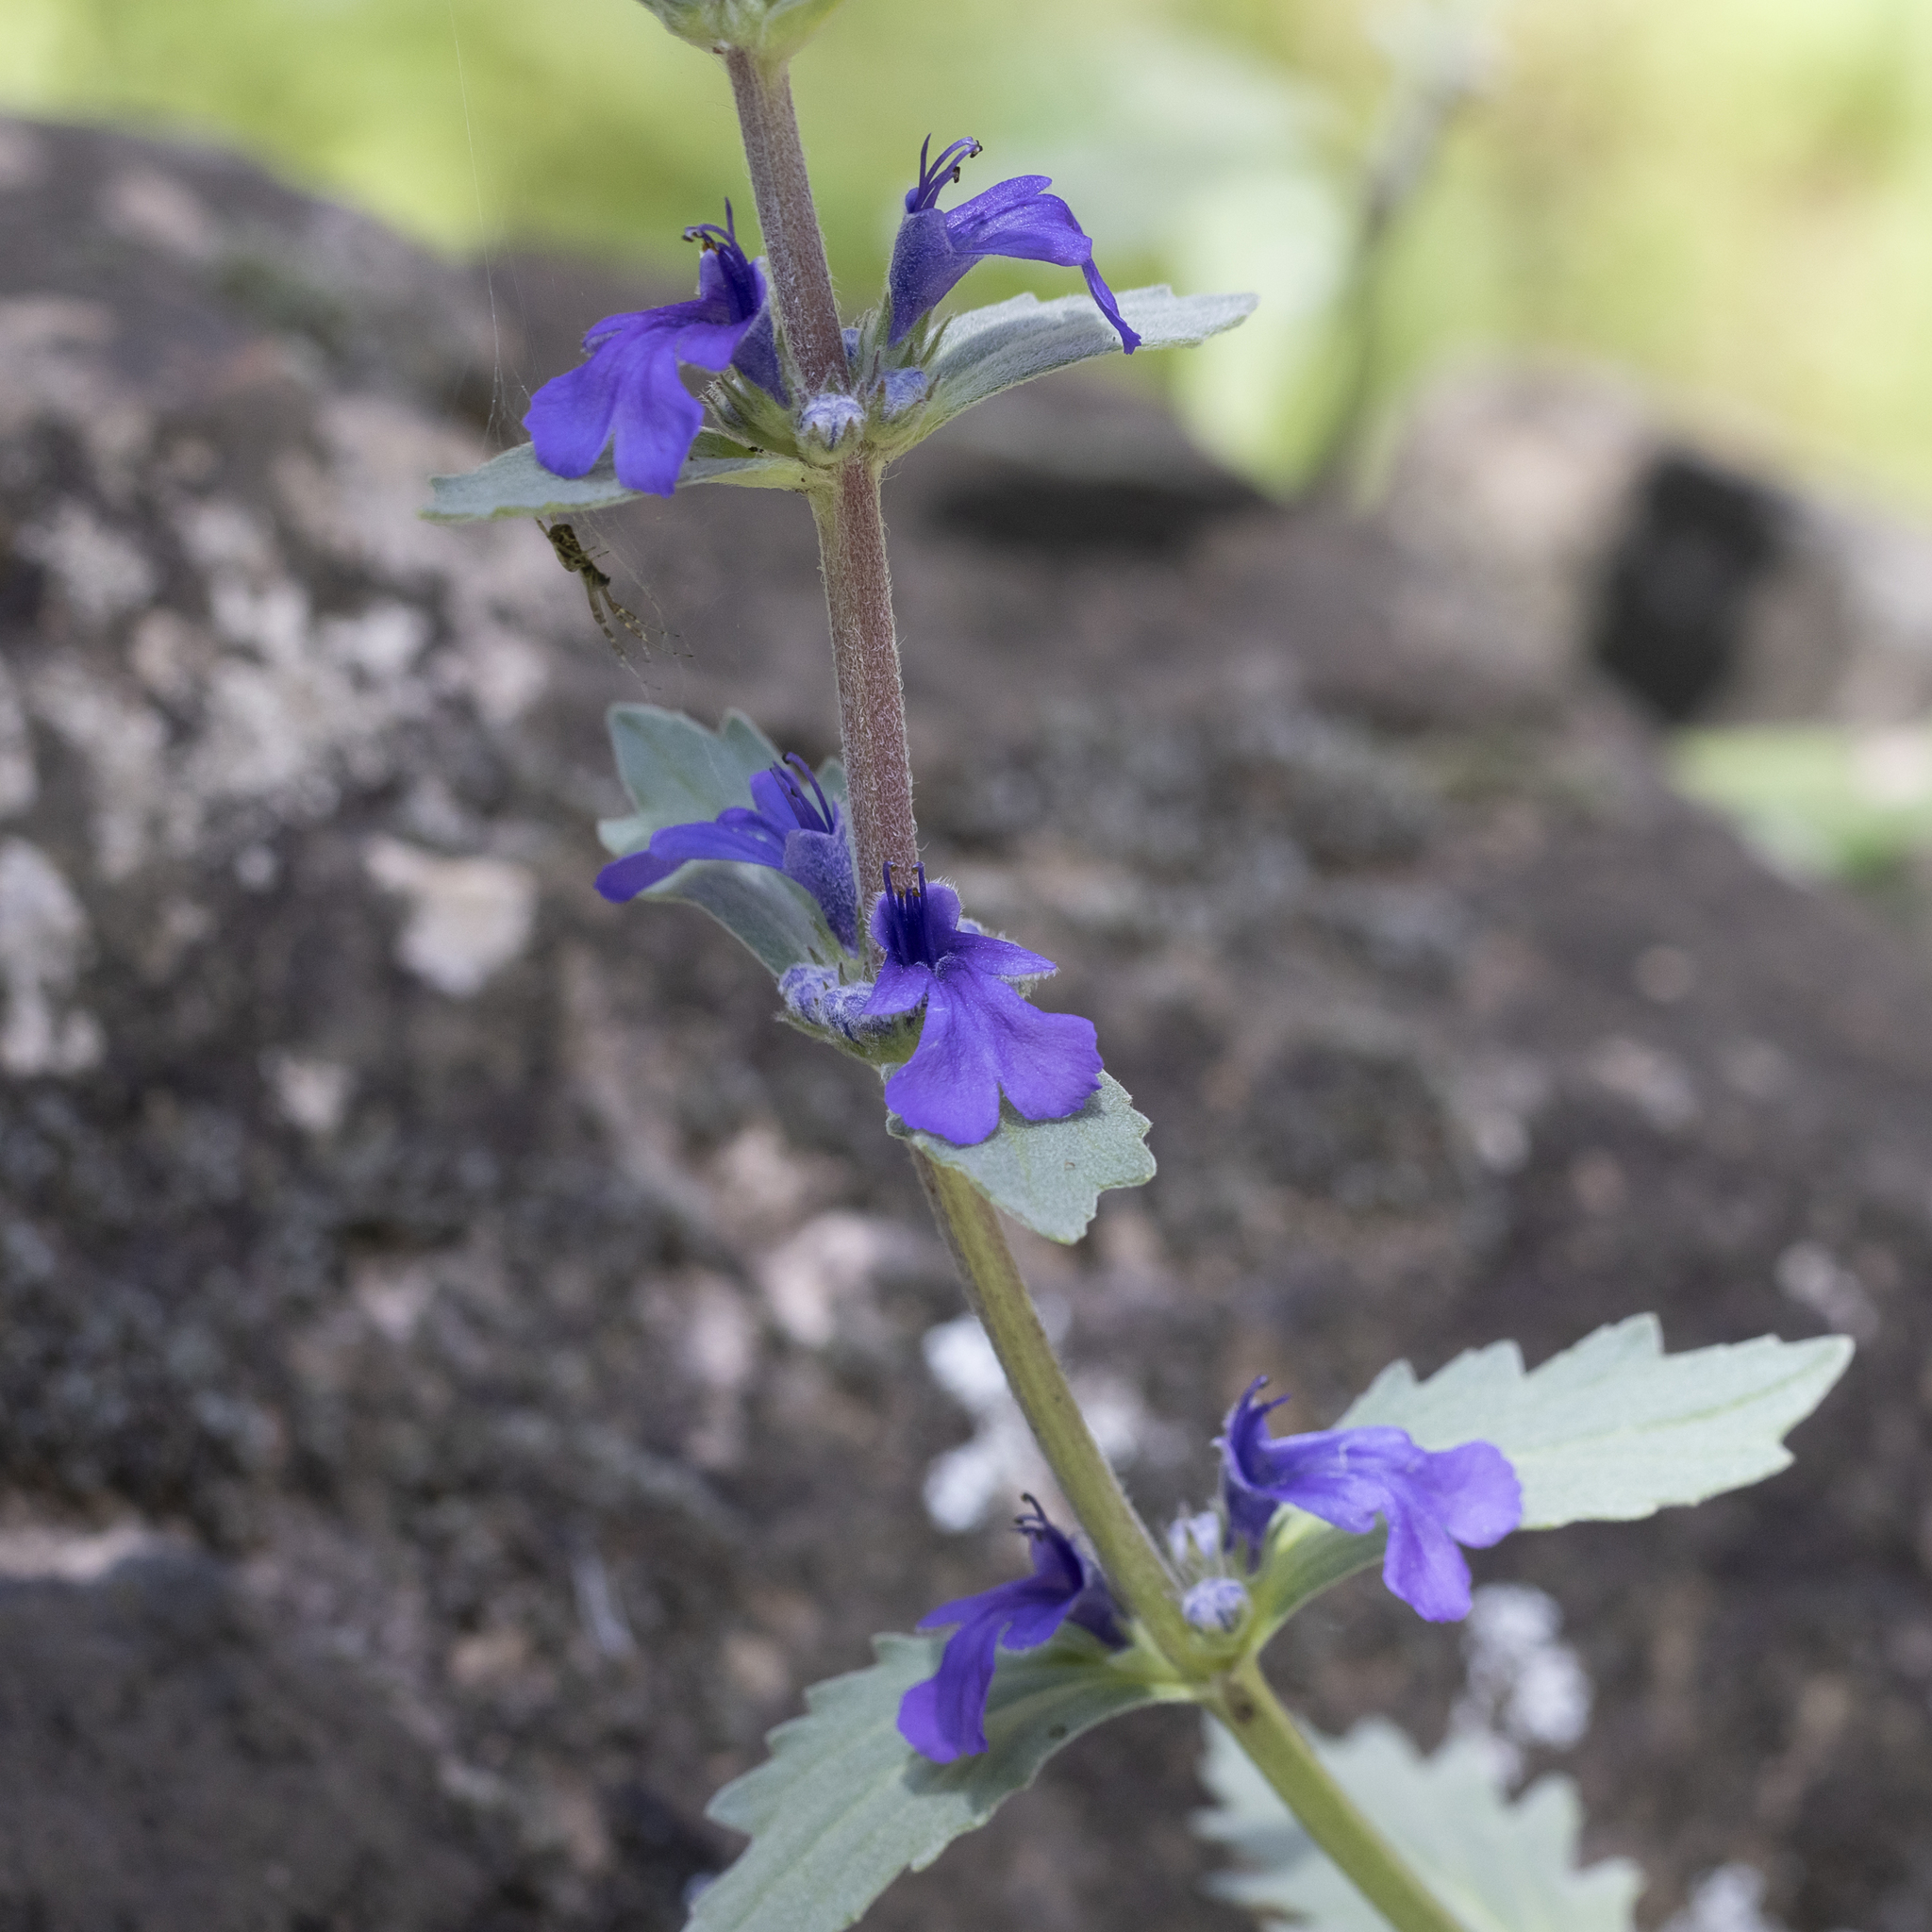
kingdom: Plantae
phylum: Tracheophyta
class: Magnoliopsida
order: Lamiales
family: Lamiaceae
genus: Ajuga
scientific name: Ajuga australis
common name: Australian bugle
